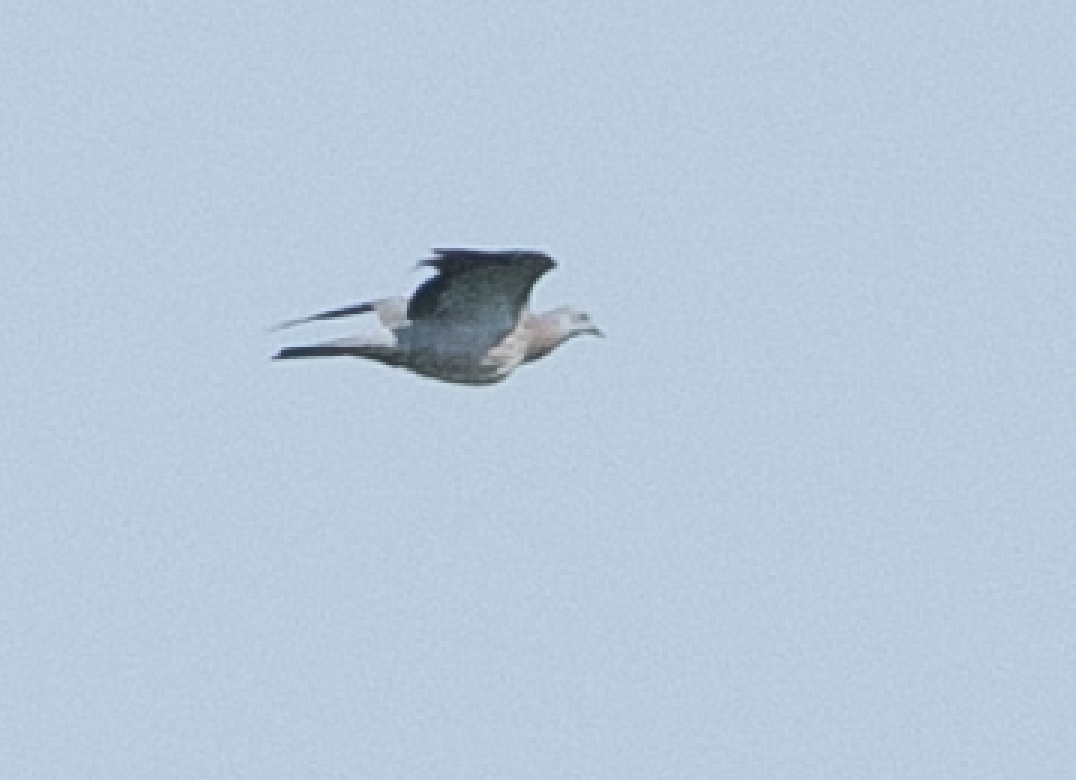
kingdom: Animalia
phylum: Chordata
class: Aves
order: Columbiformes
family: Columbidae
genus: Columba
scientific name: Columba palumbus
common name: Common wood pigeon
